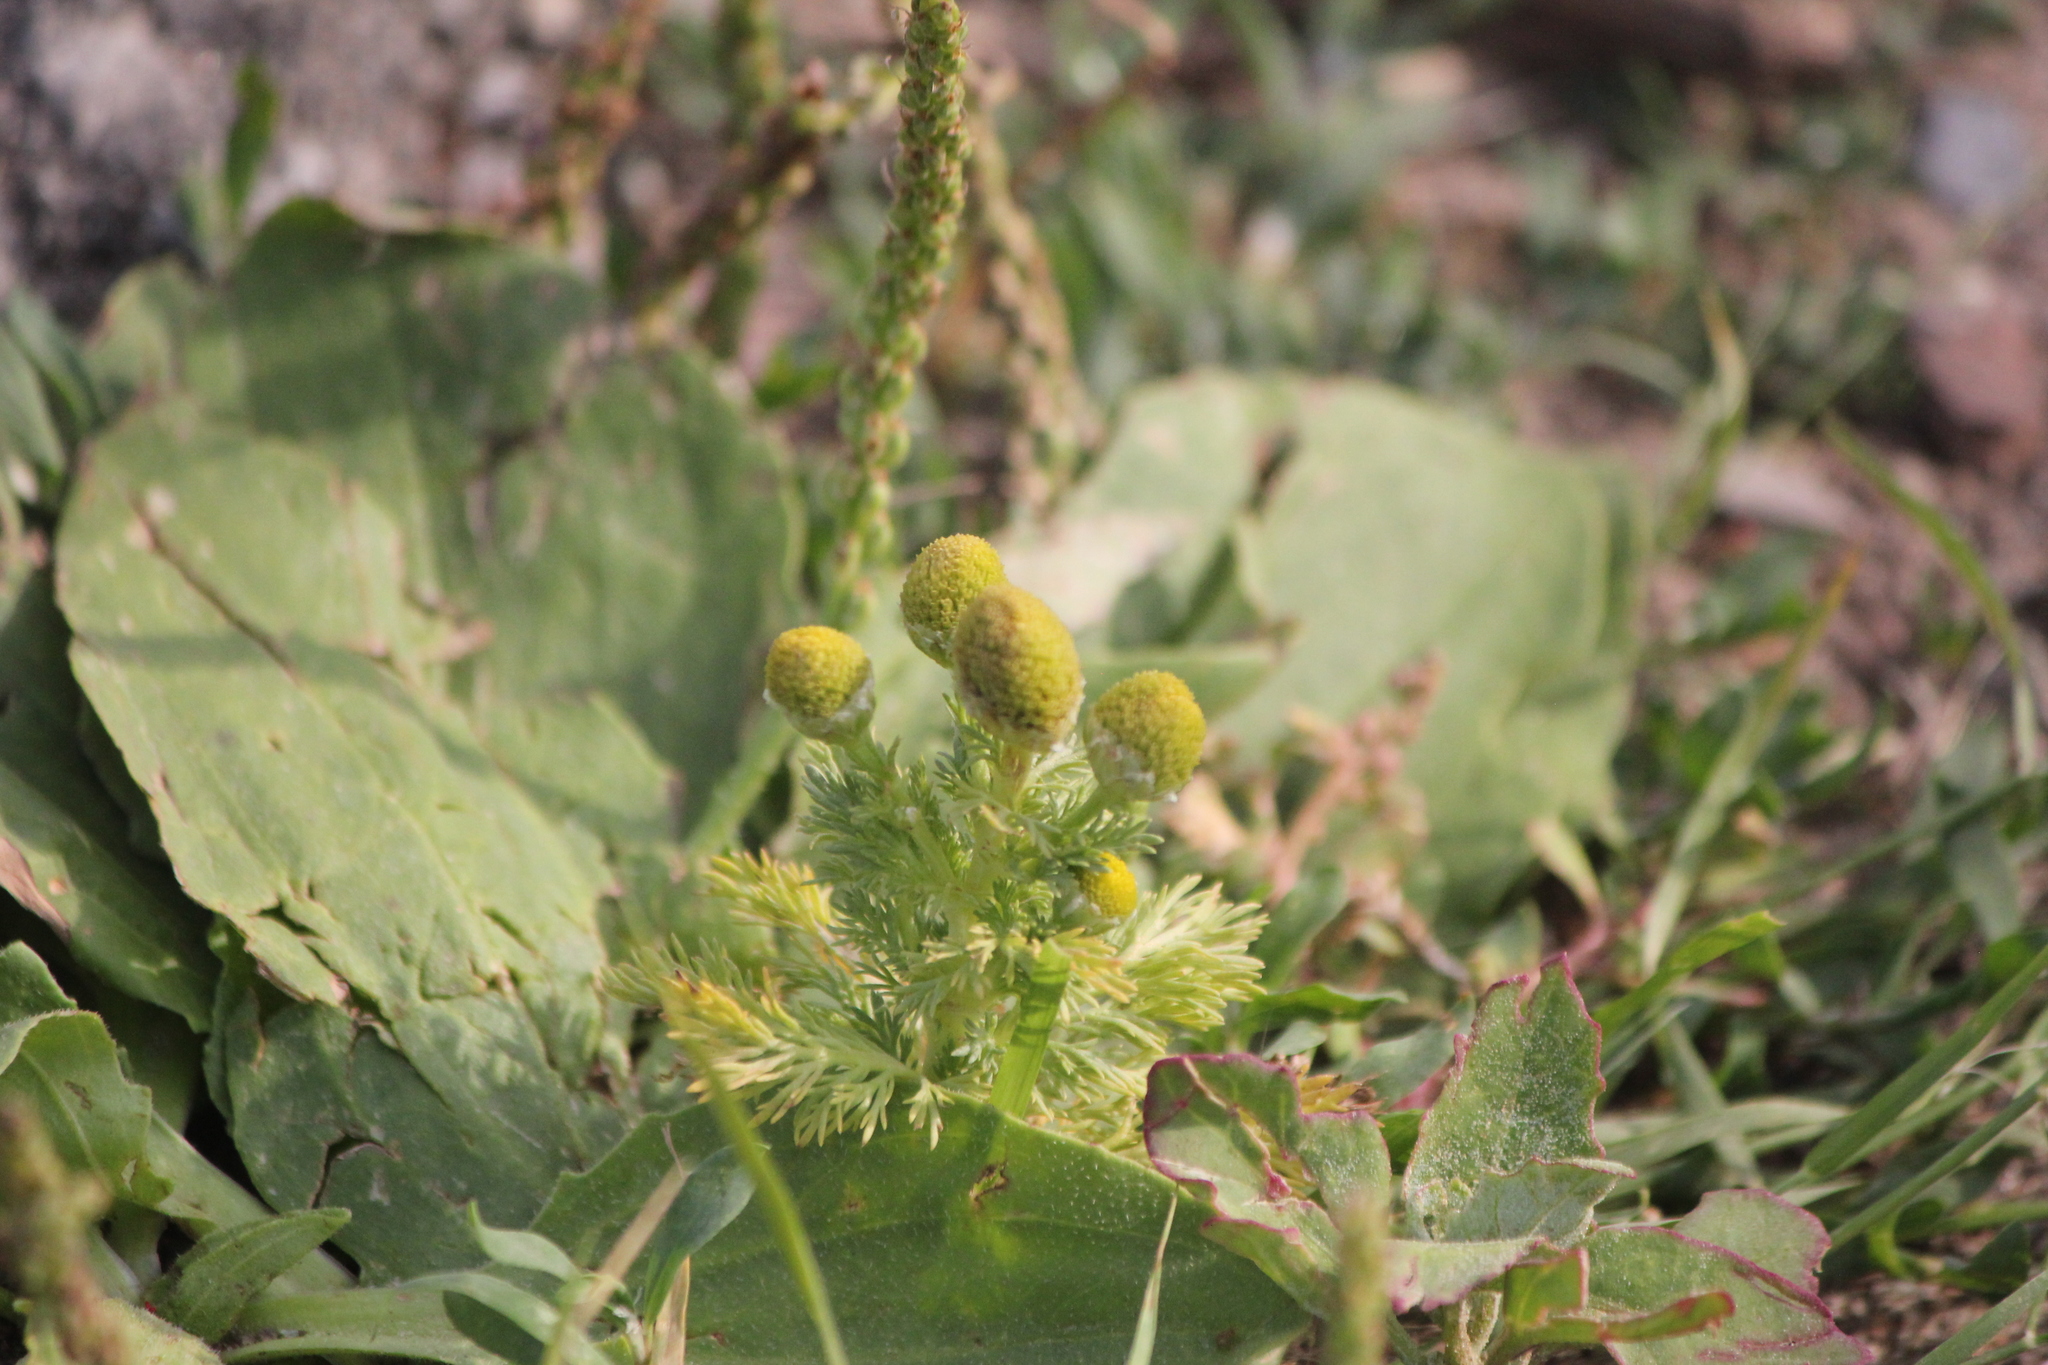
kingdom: Plantae
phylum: Tracheophyta
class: Magnoliopsida
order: Asterales
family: Asteraceae
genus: Matricaria
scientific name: Matricaria discoidea
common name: Disc mayweed
